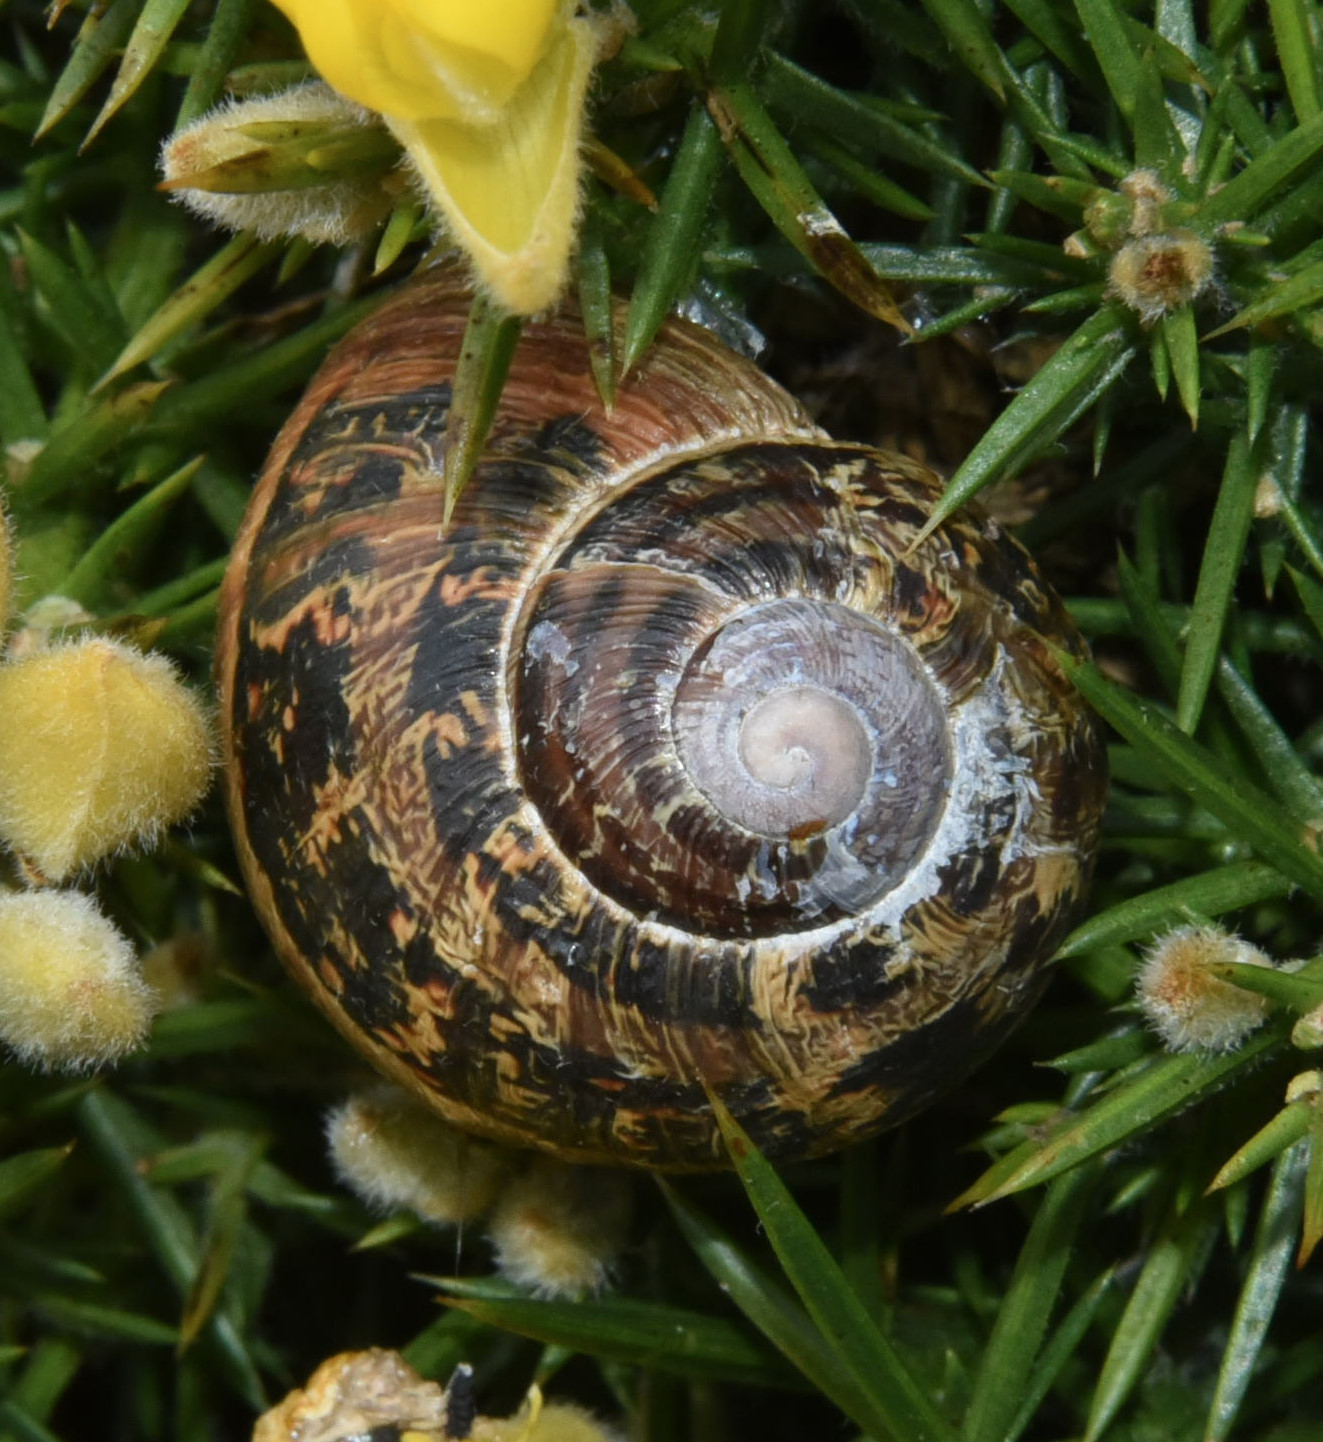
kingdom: Animalia
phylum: Mollusca
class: Gastropoda
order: Stylommatophora
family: Helicidae
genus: Cornu
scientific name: Cornu aspersum
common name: Brown garden snail
